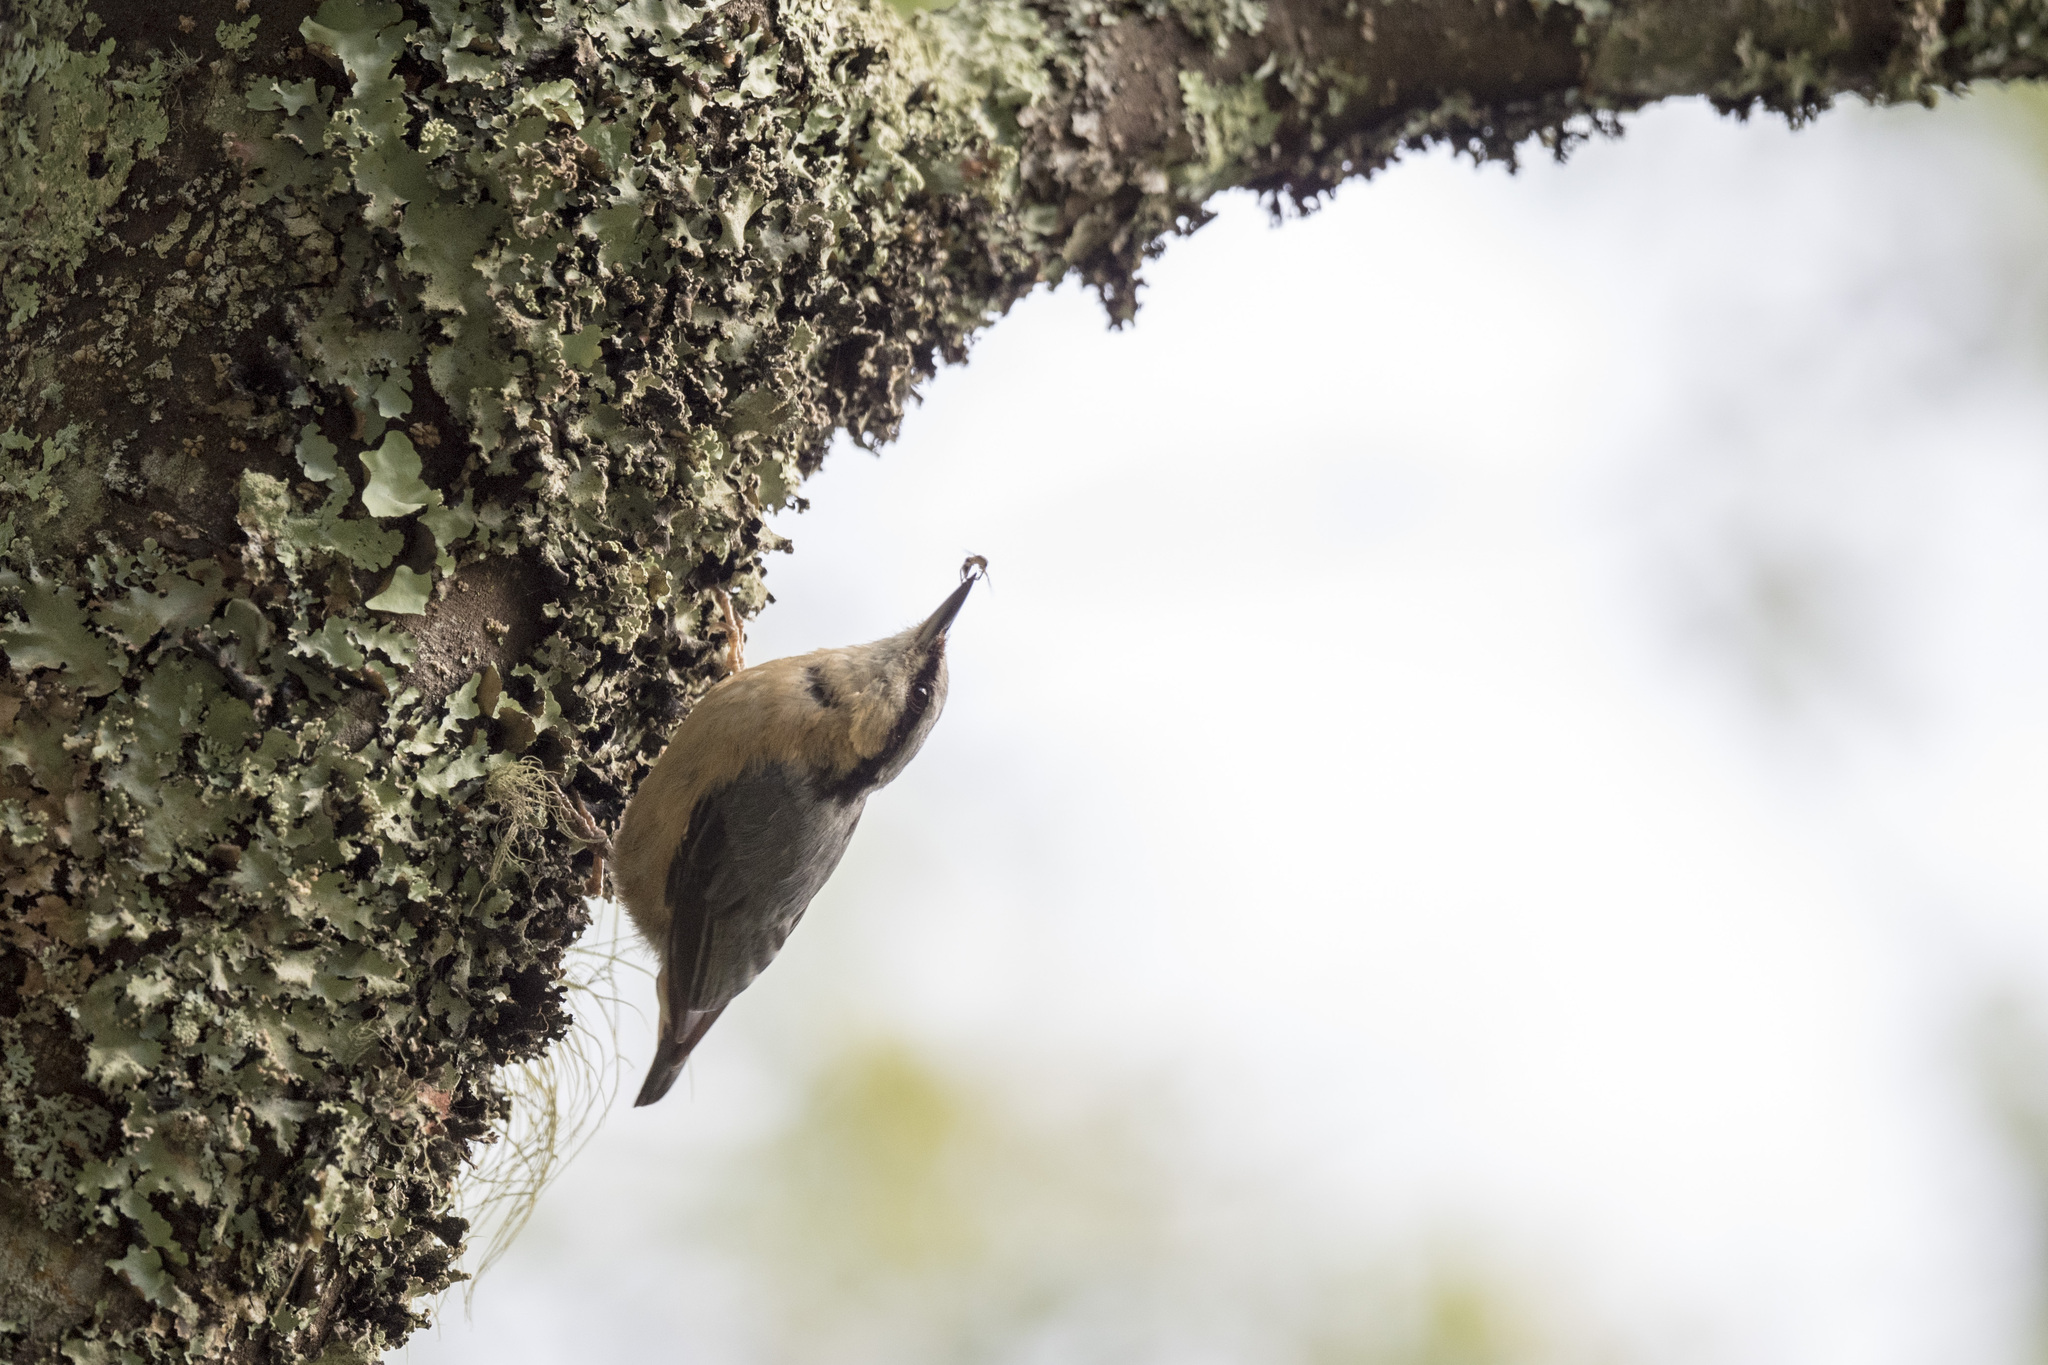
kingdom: Animalia
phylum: Chordata
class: Aves
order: Passeriformes
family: Sittidae
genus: Sitta
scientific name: Sitta europaea
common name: Eurasian nuthatch
